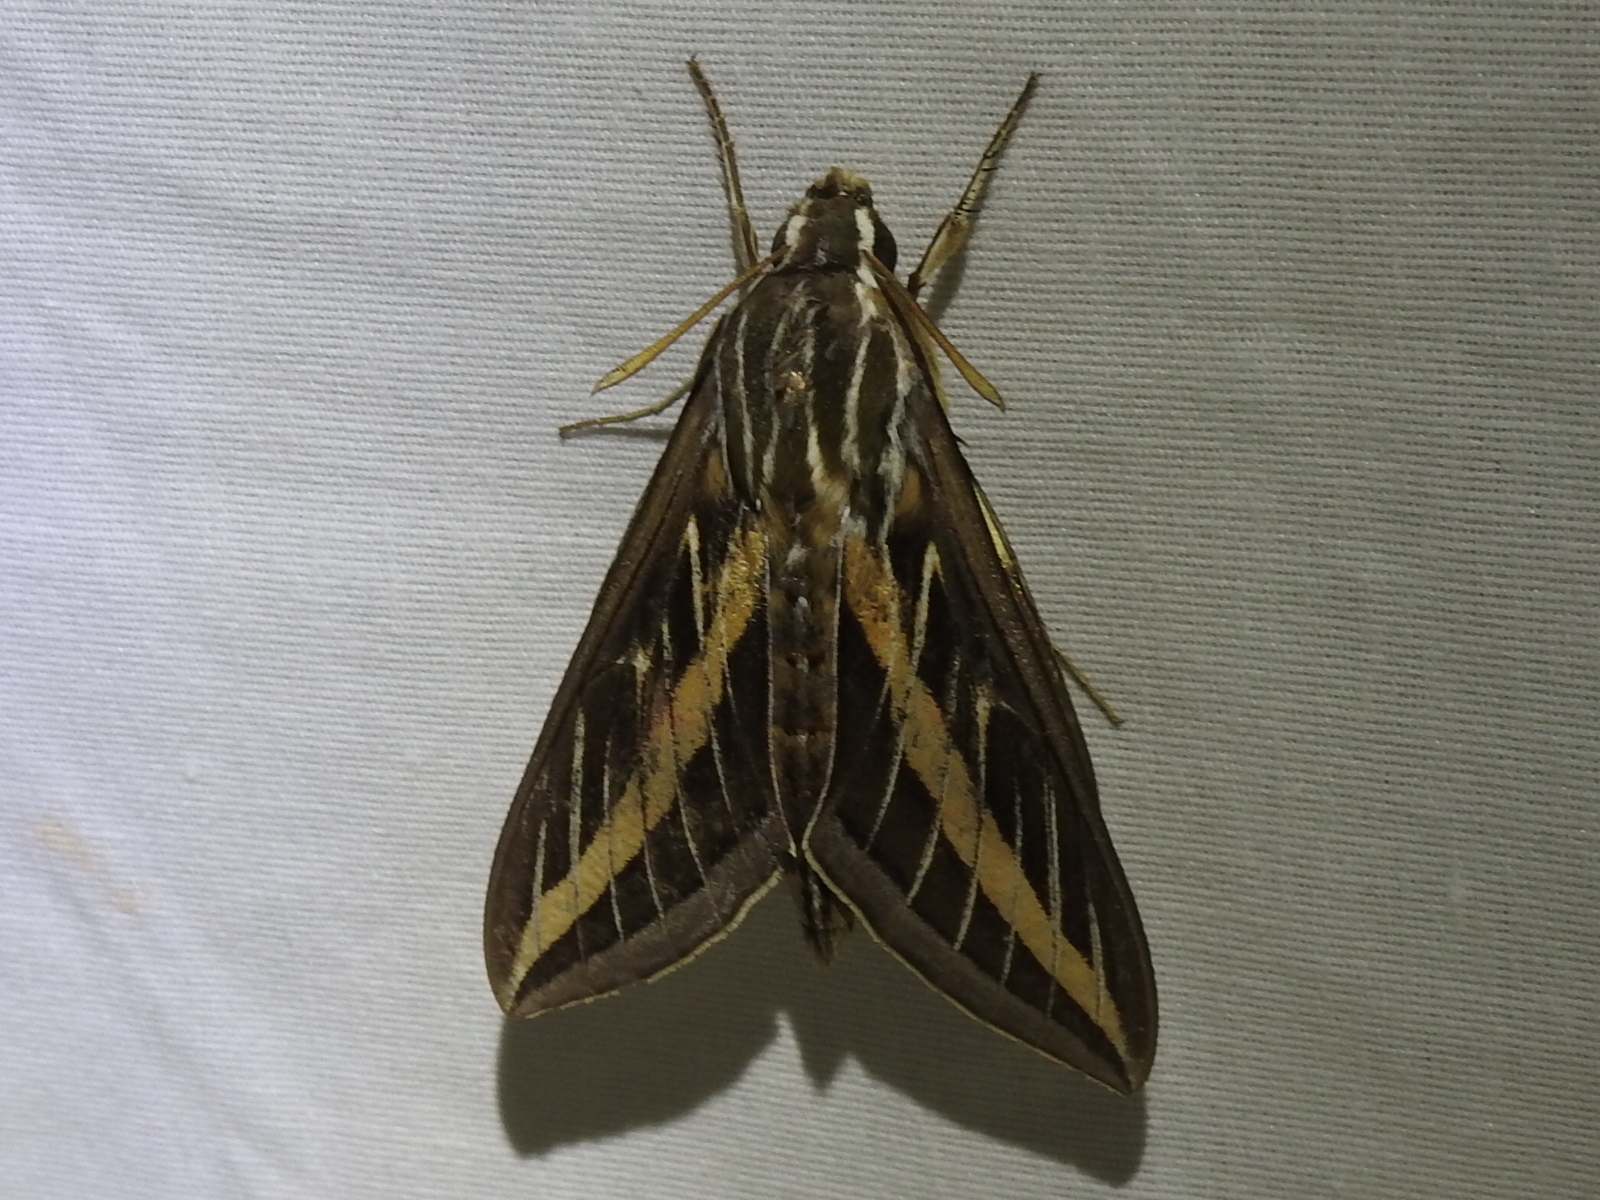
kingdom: Animalia
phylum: Arthropoda
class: Insecta
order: Lepidoptera
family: Sphingidae
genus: Hyles
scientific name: Hyles lineata
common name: White-lined sphinx
